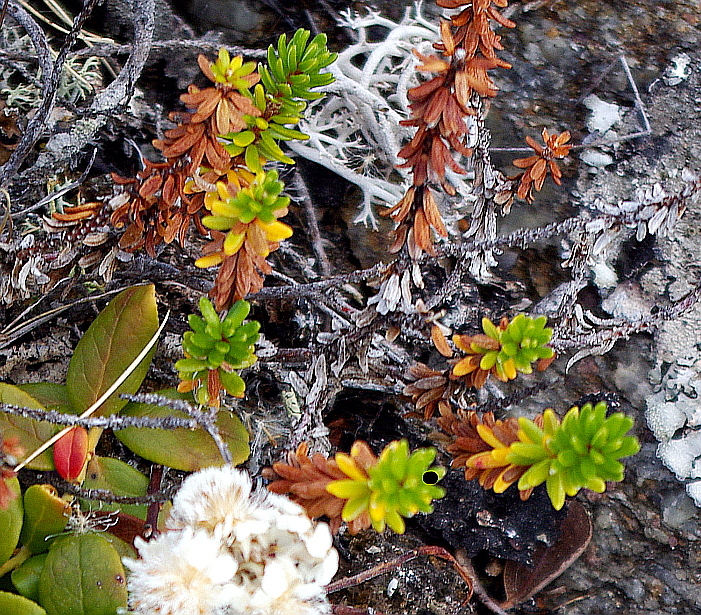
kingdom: Plantae
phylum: Tracheophyta
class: Magnoliopsida
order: Ericales
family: Ericaceae
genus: Empetrum
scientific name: Empetrum nigrum
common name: Black crowberry
